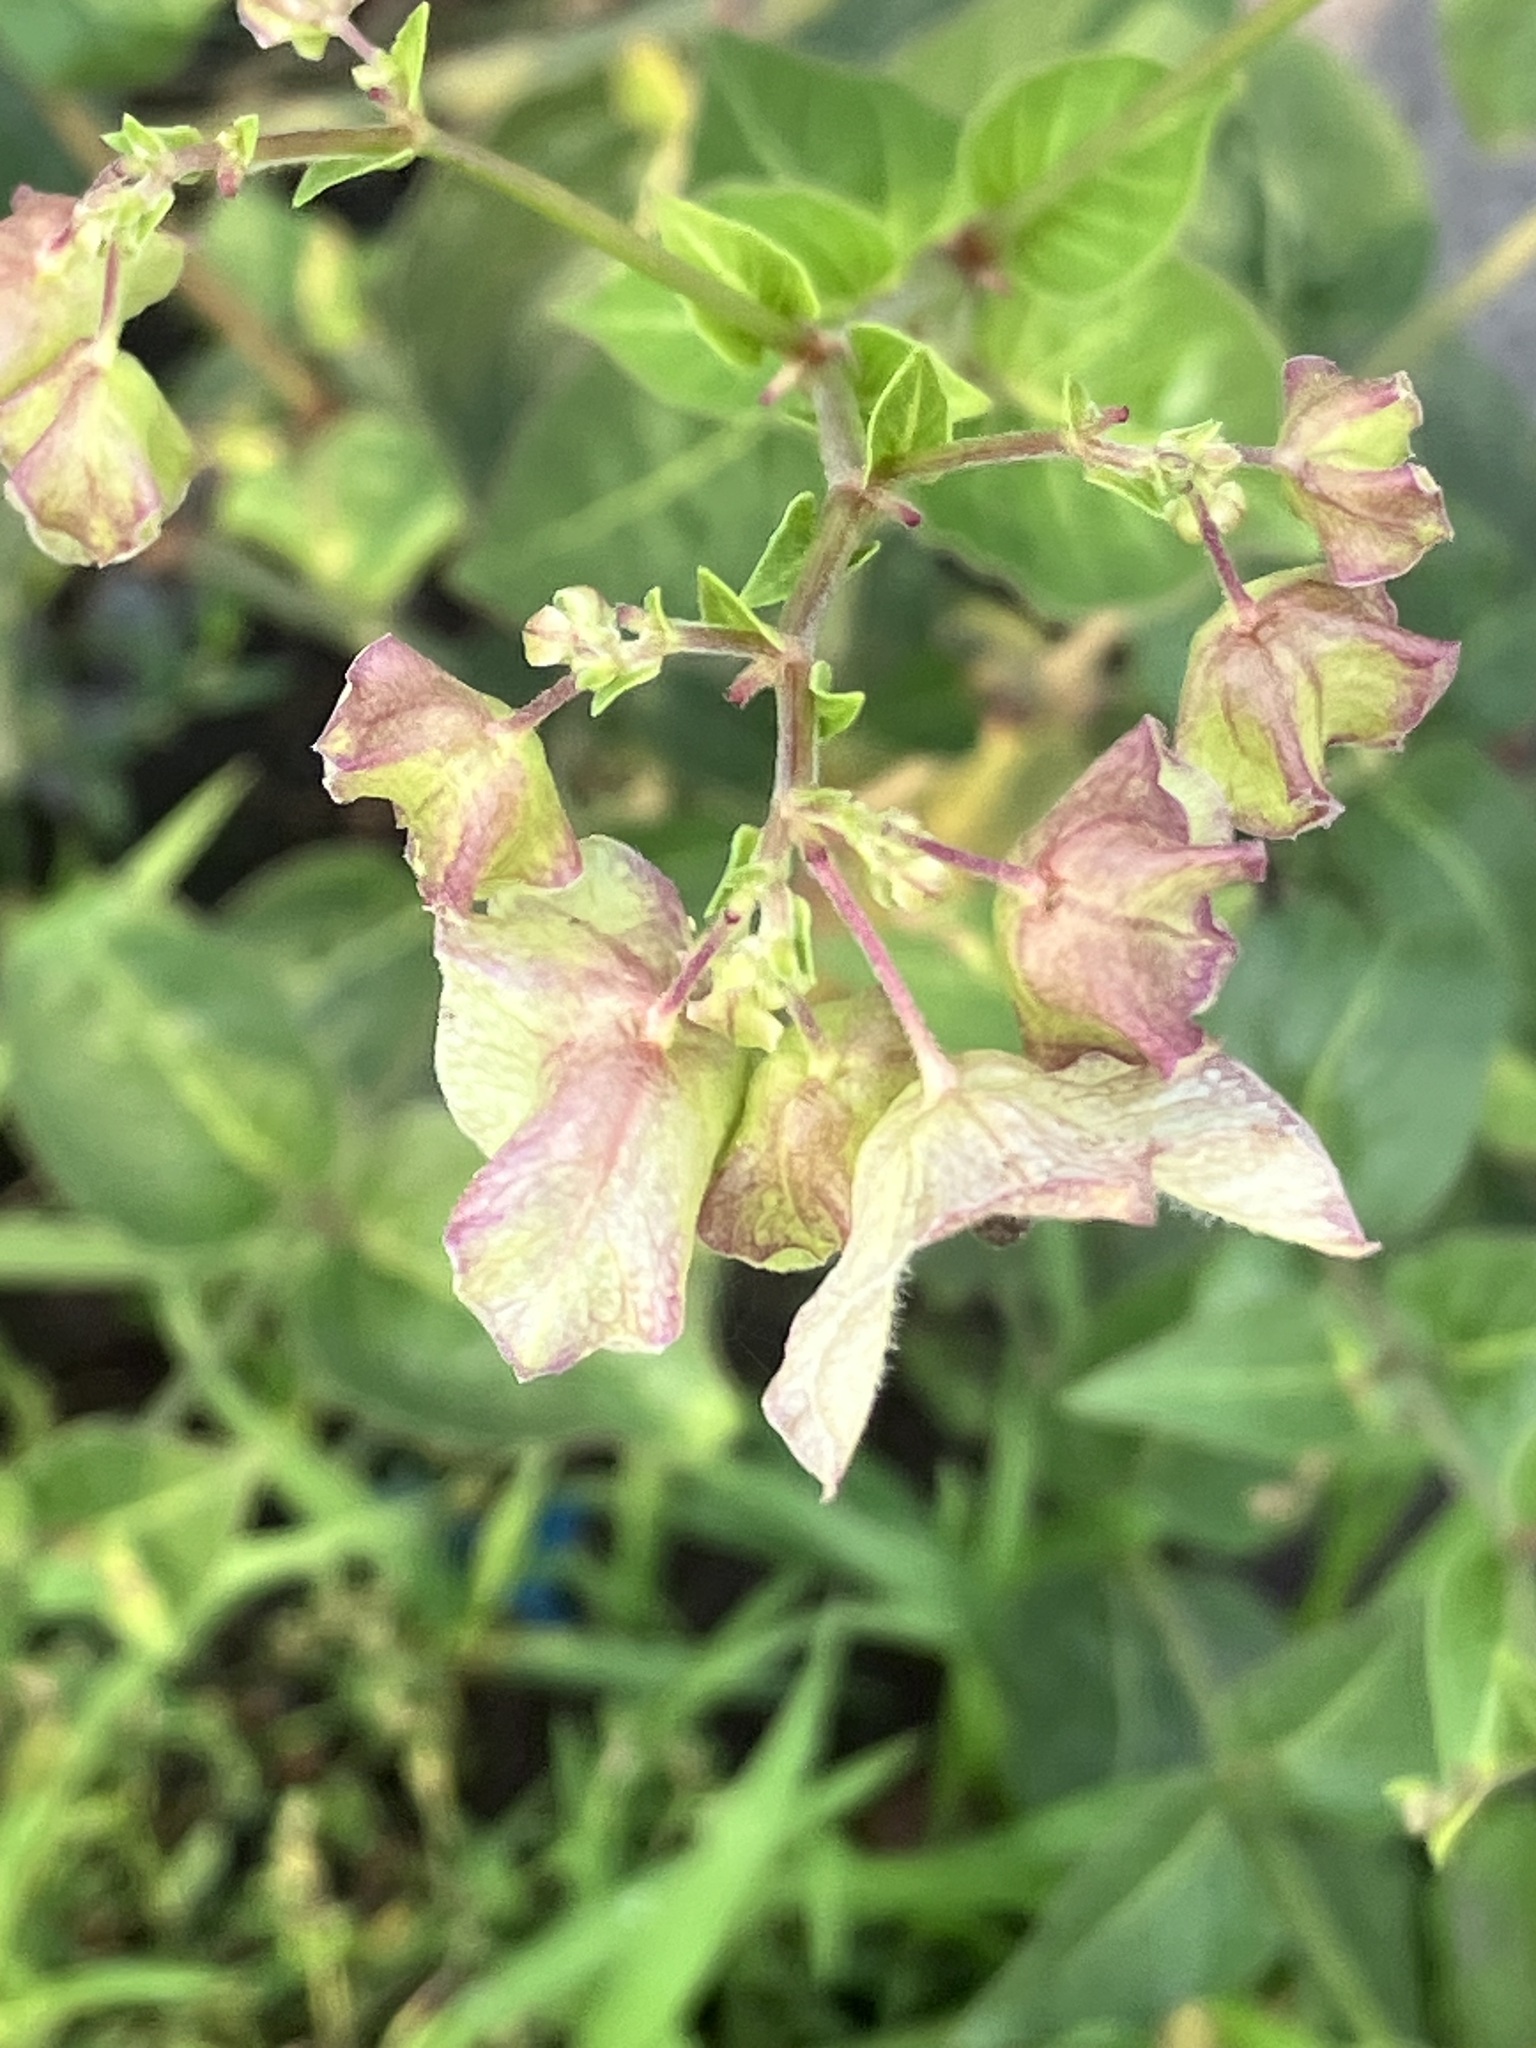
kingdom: Plantae
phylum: Tracheophyta
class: Magnoliopsida
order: Caryophyllales
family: Nyctaginaceae
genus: Mirabilis
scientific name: Mirabilis nyctaginea
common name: Umbrella wort
